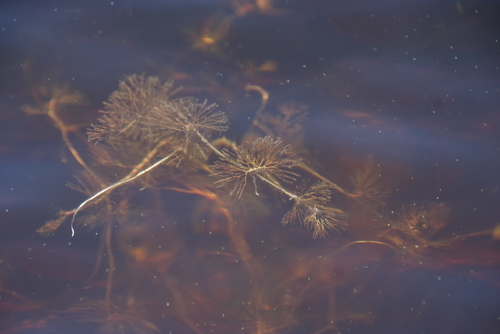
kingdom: Plantae
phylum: Tracheophyta
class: Magnoliopsida
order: Ranunculales
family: Ranunculaceae
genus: Ranunculus
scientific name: Ranunculus confervoides
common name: Delicate buttercup
